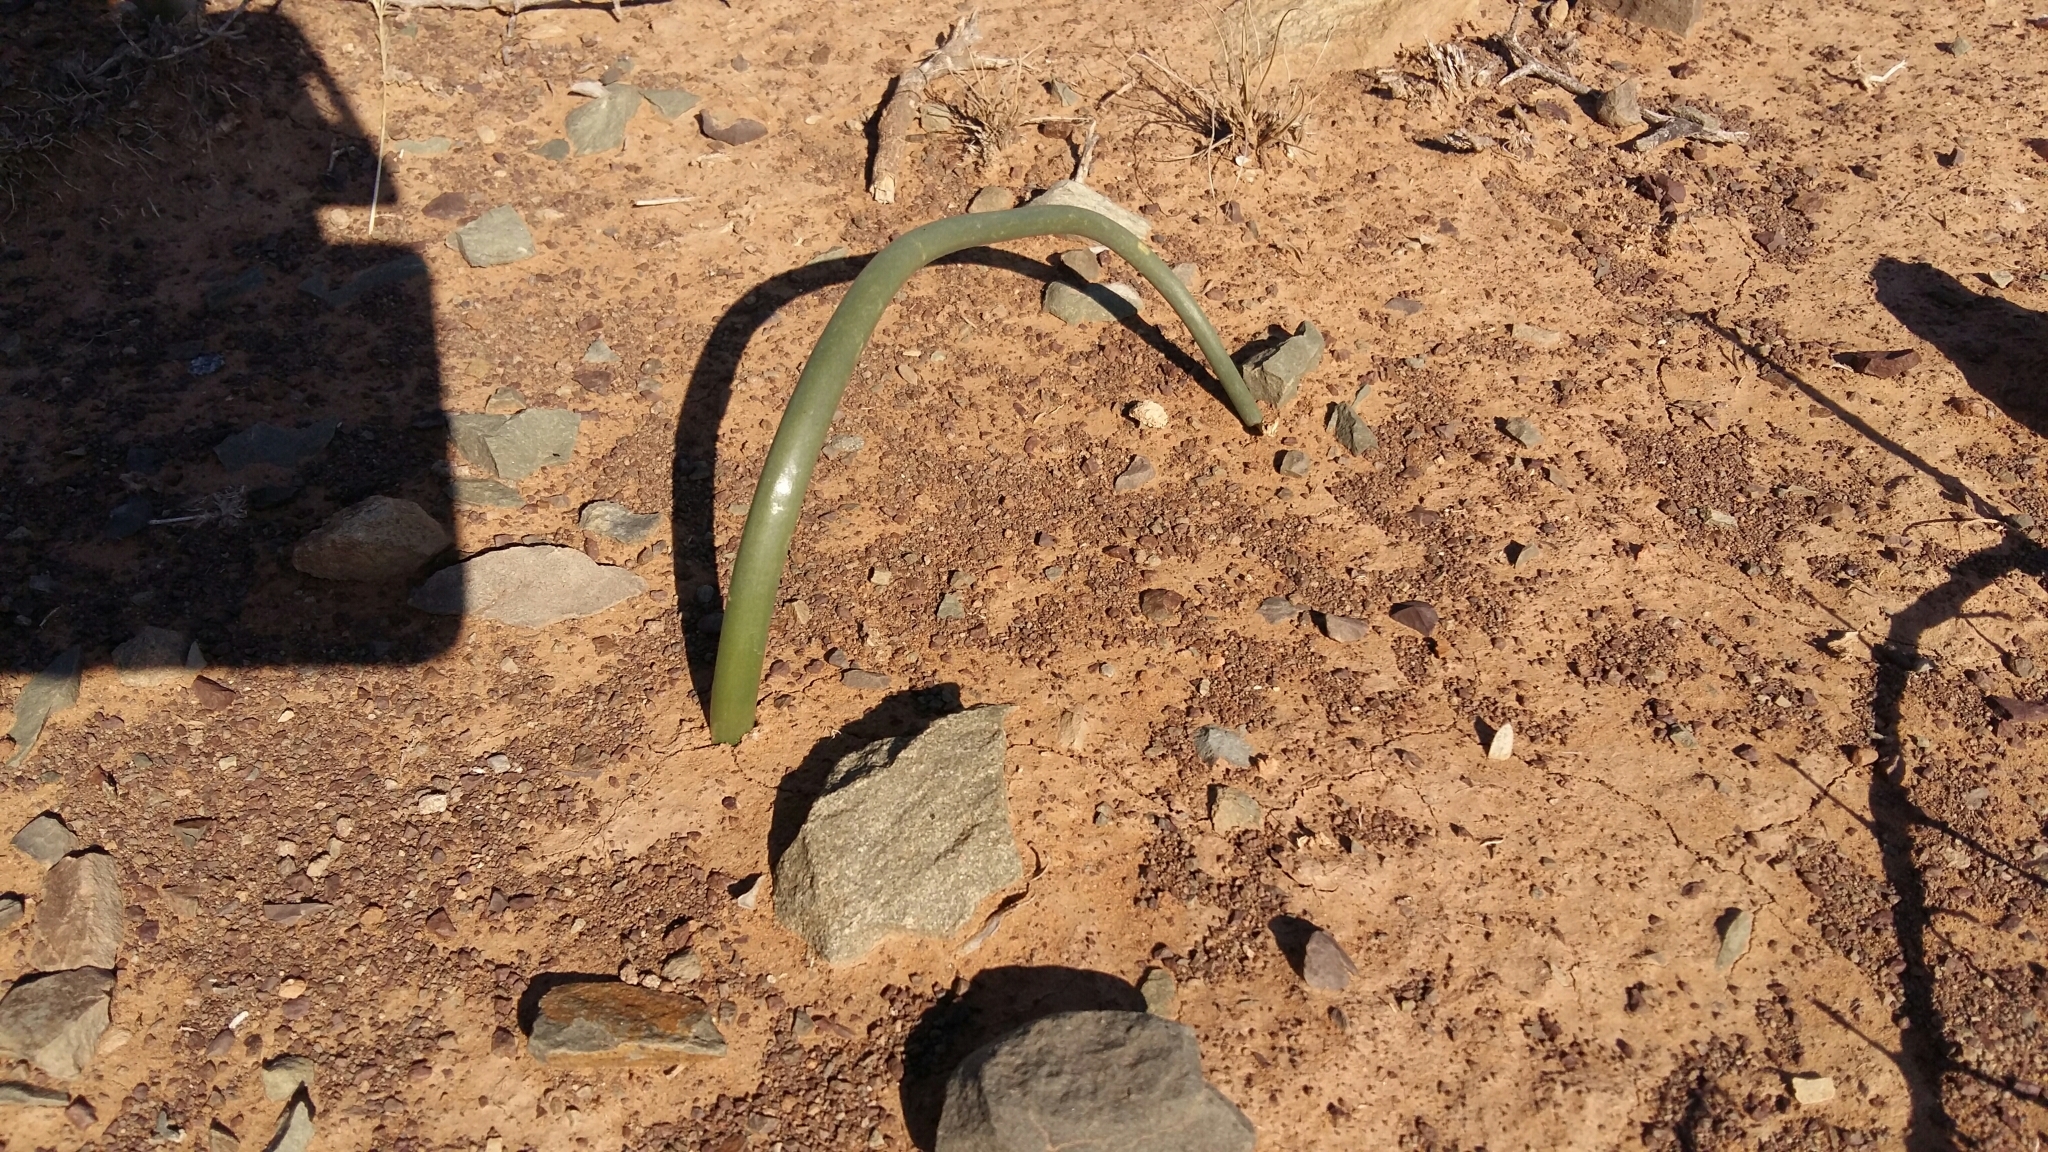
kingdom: Plantae
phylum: Tracheophyta
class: Liliopsida
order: Asparagales
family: Asparagaceae
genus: Drimia
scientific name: Drimia anomala
